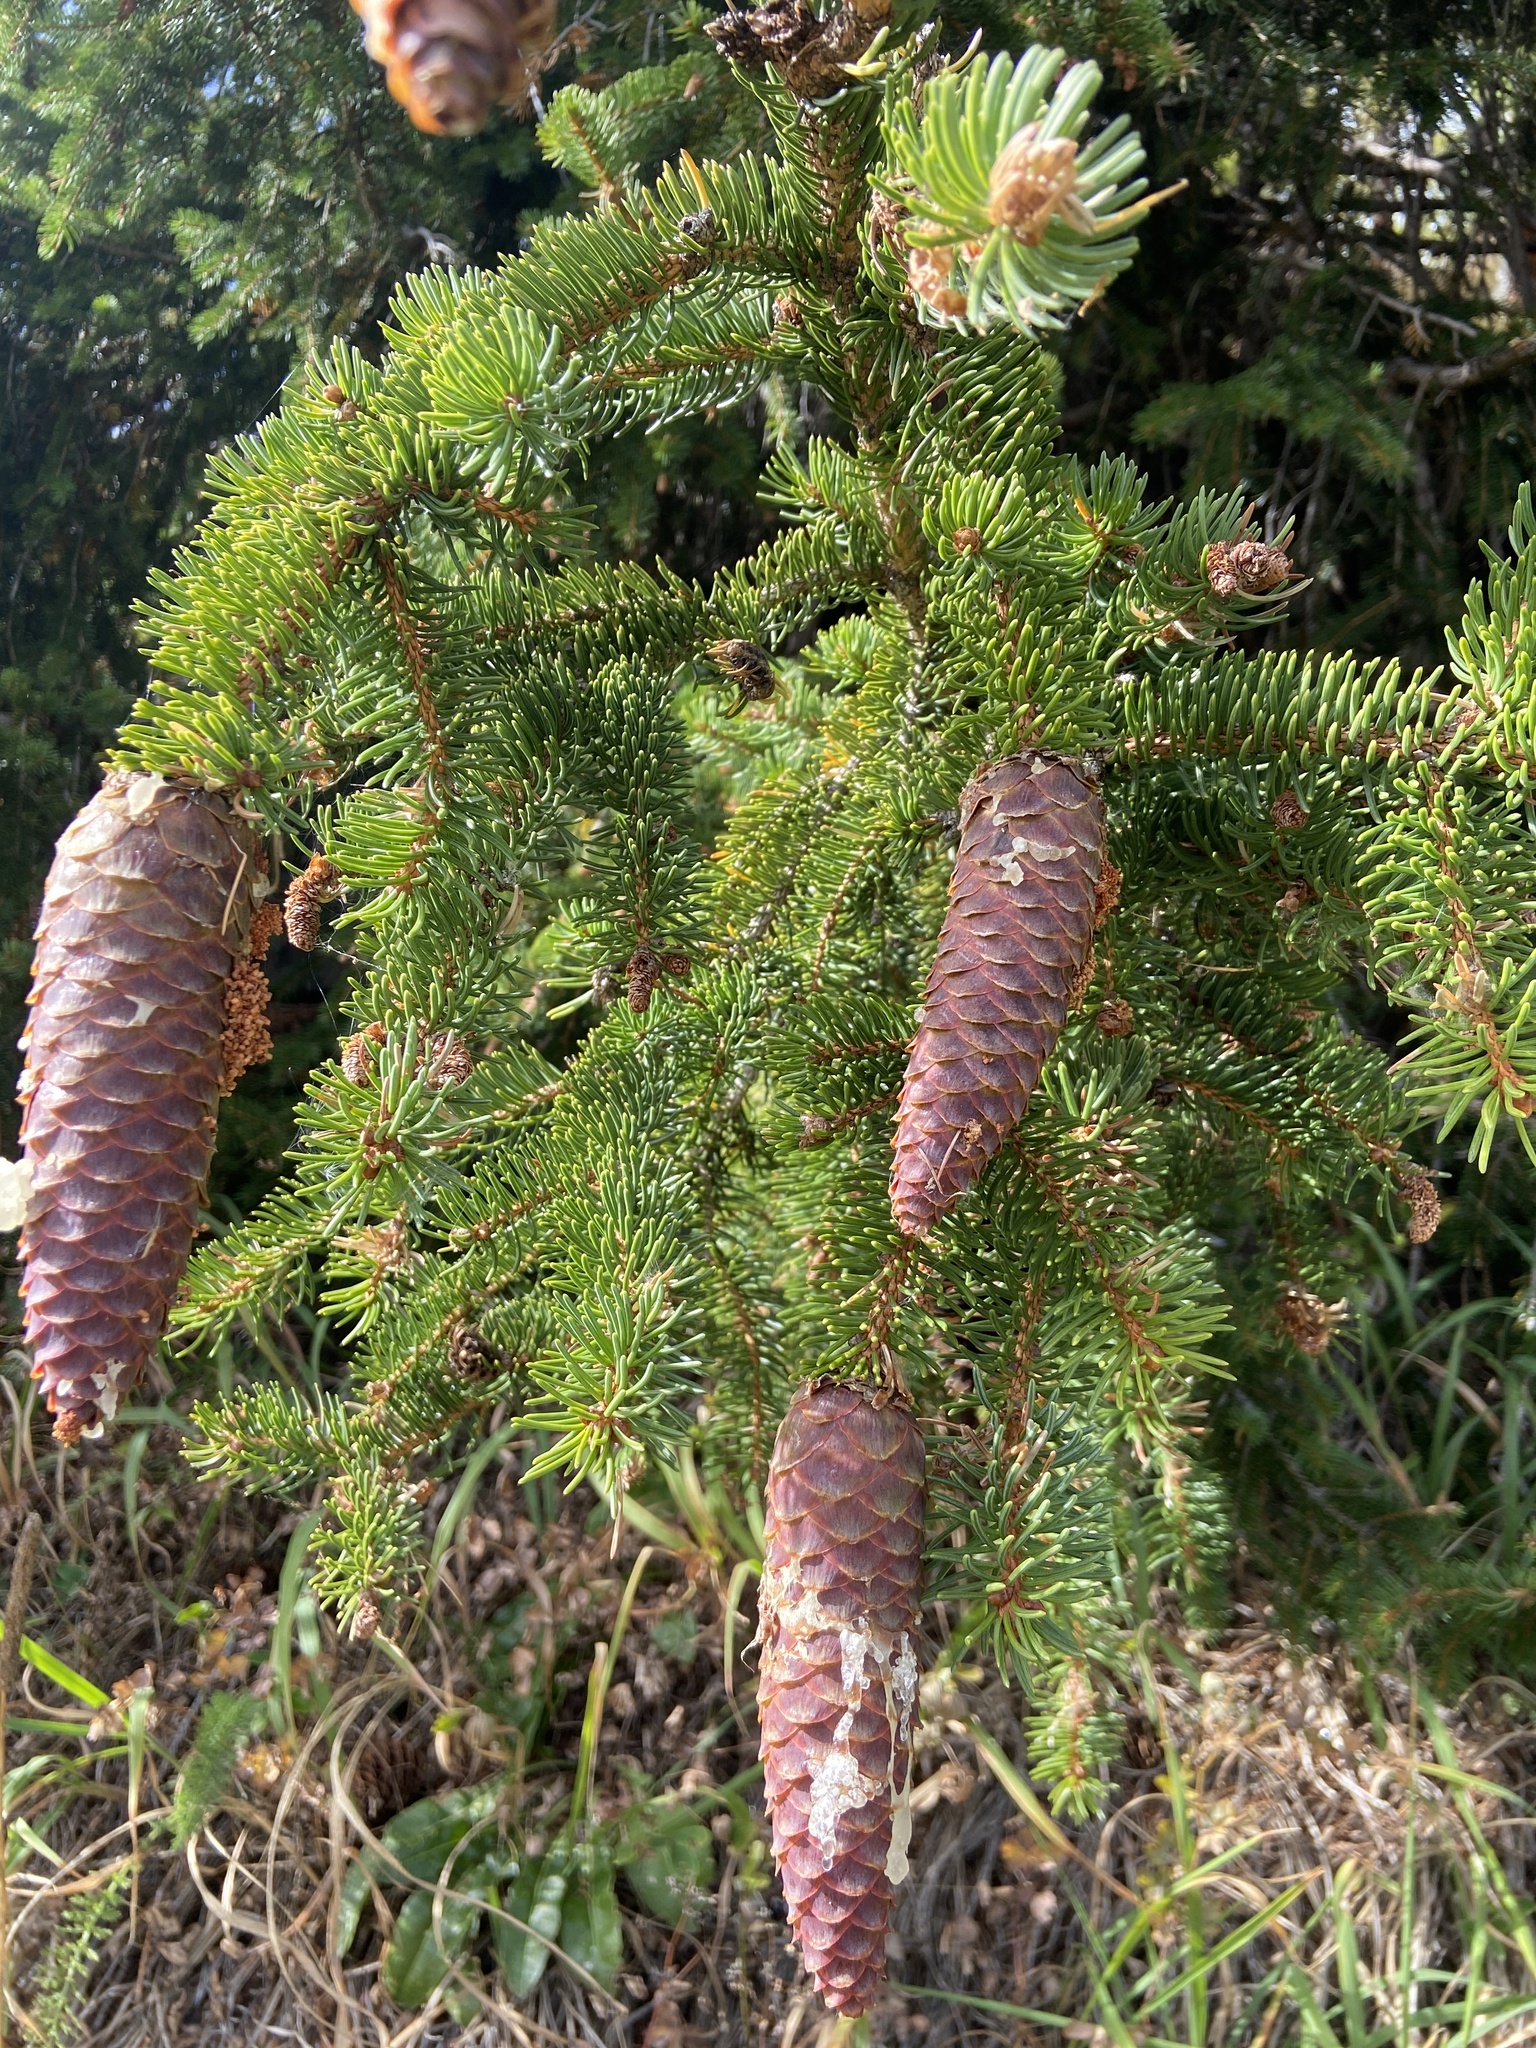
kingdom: Plantae
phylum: Tracheophyta
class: Pinopsida
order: Pinales
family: Pinaceae
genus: Picea
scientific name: Picea abies
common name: Norway spruce
